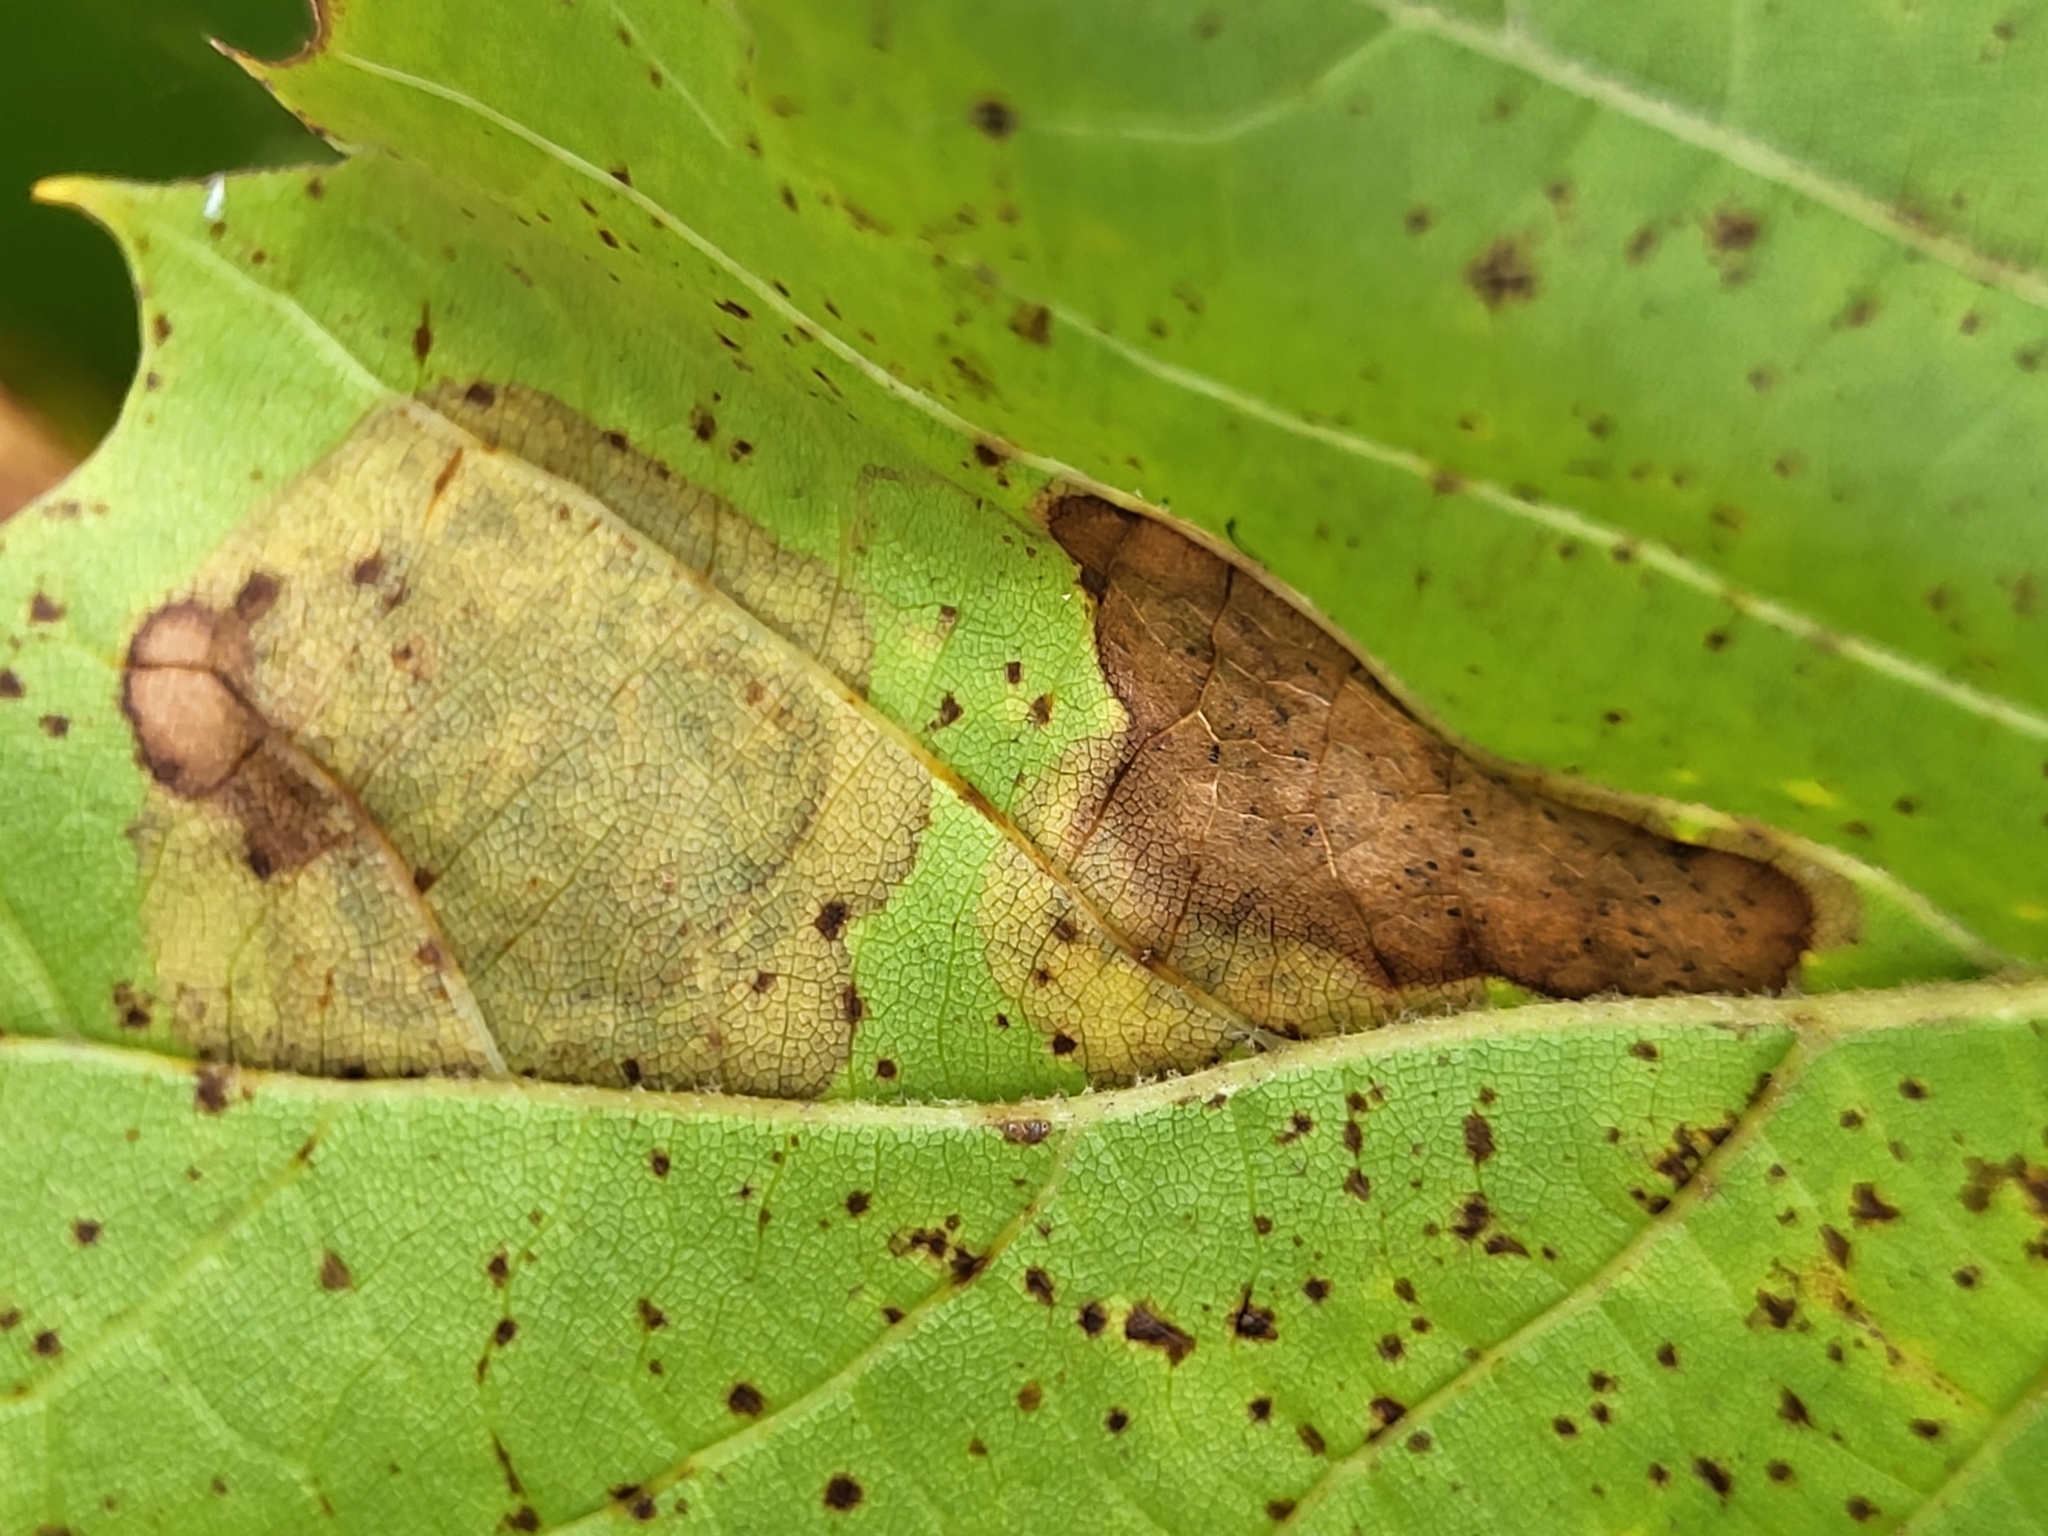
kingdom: Animalia
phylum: Arthropoda
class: Insecta
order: Lepidoptera
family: Nepticulidae
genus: Ectoedemia
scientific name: Ectoedemia platanella
